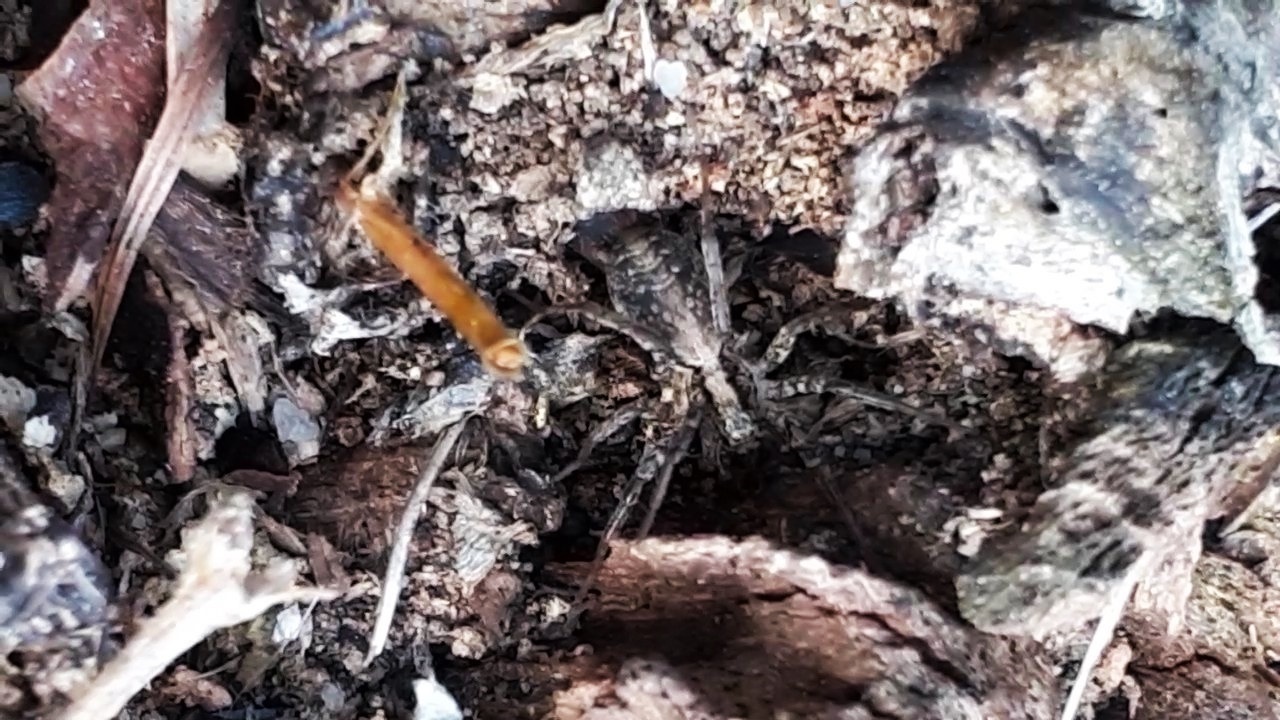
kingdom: Animalia
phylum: Arthropoda
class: Arachnida
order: Araneae
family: Lycosidae
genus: Xerolycosa
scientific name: Xerolycosa miniata
